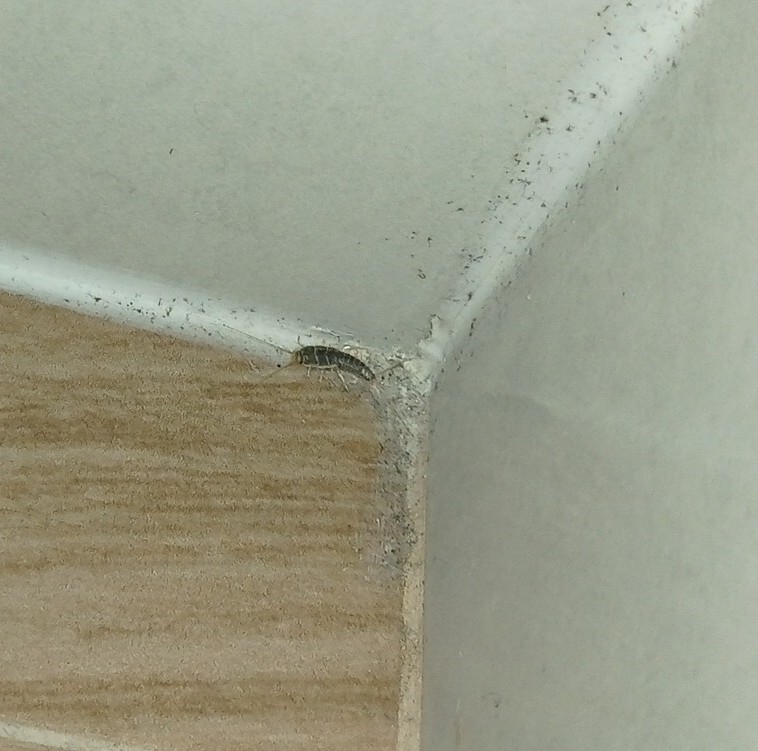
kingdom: Animalia
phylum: Arthropoda
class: Insecta
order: Zygentoma
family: Lepismatidae
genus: Ctenolepisma
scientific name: Ctenolepisma longicaudatum
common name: Silverfish
